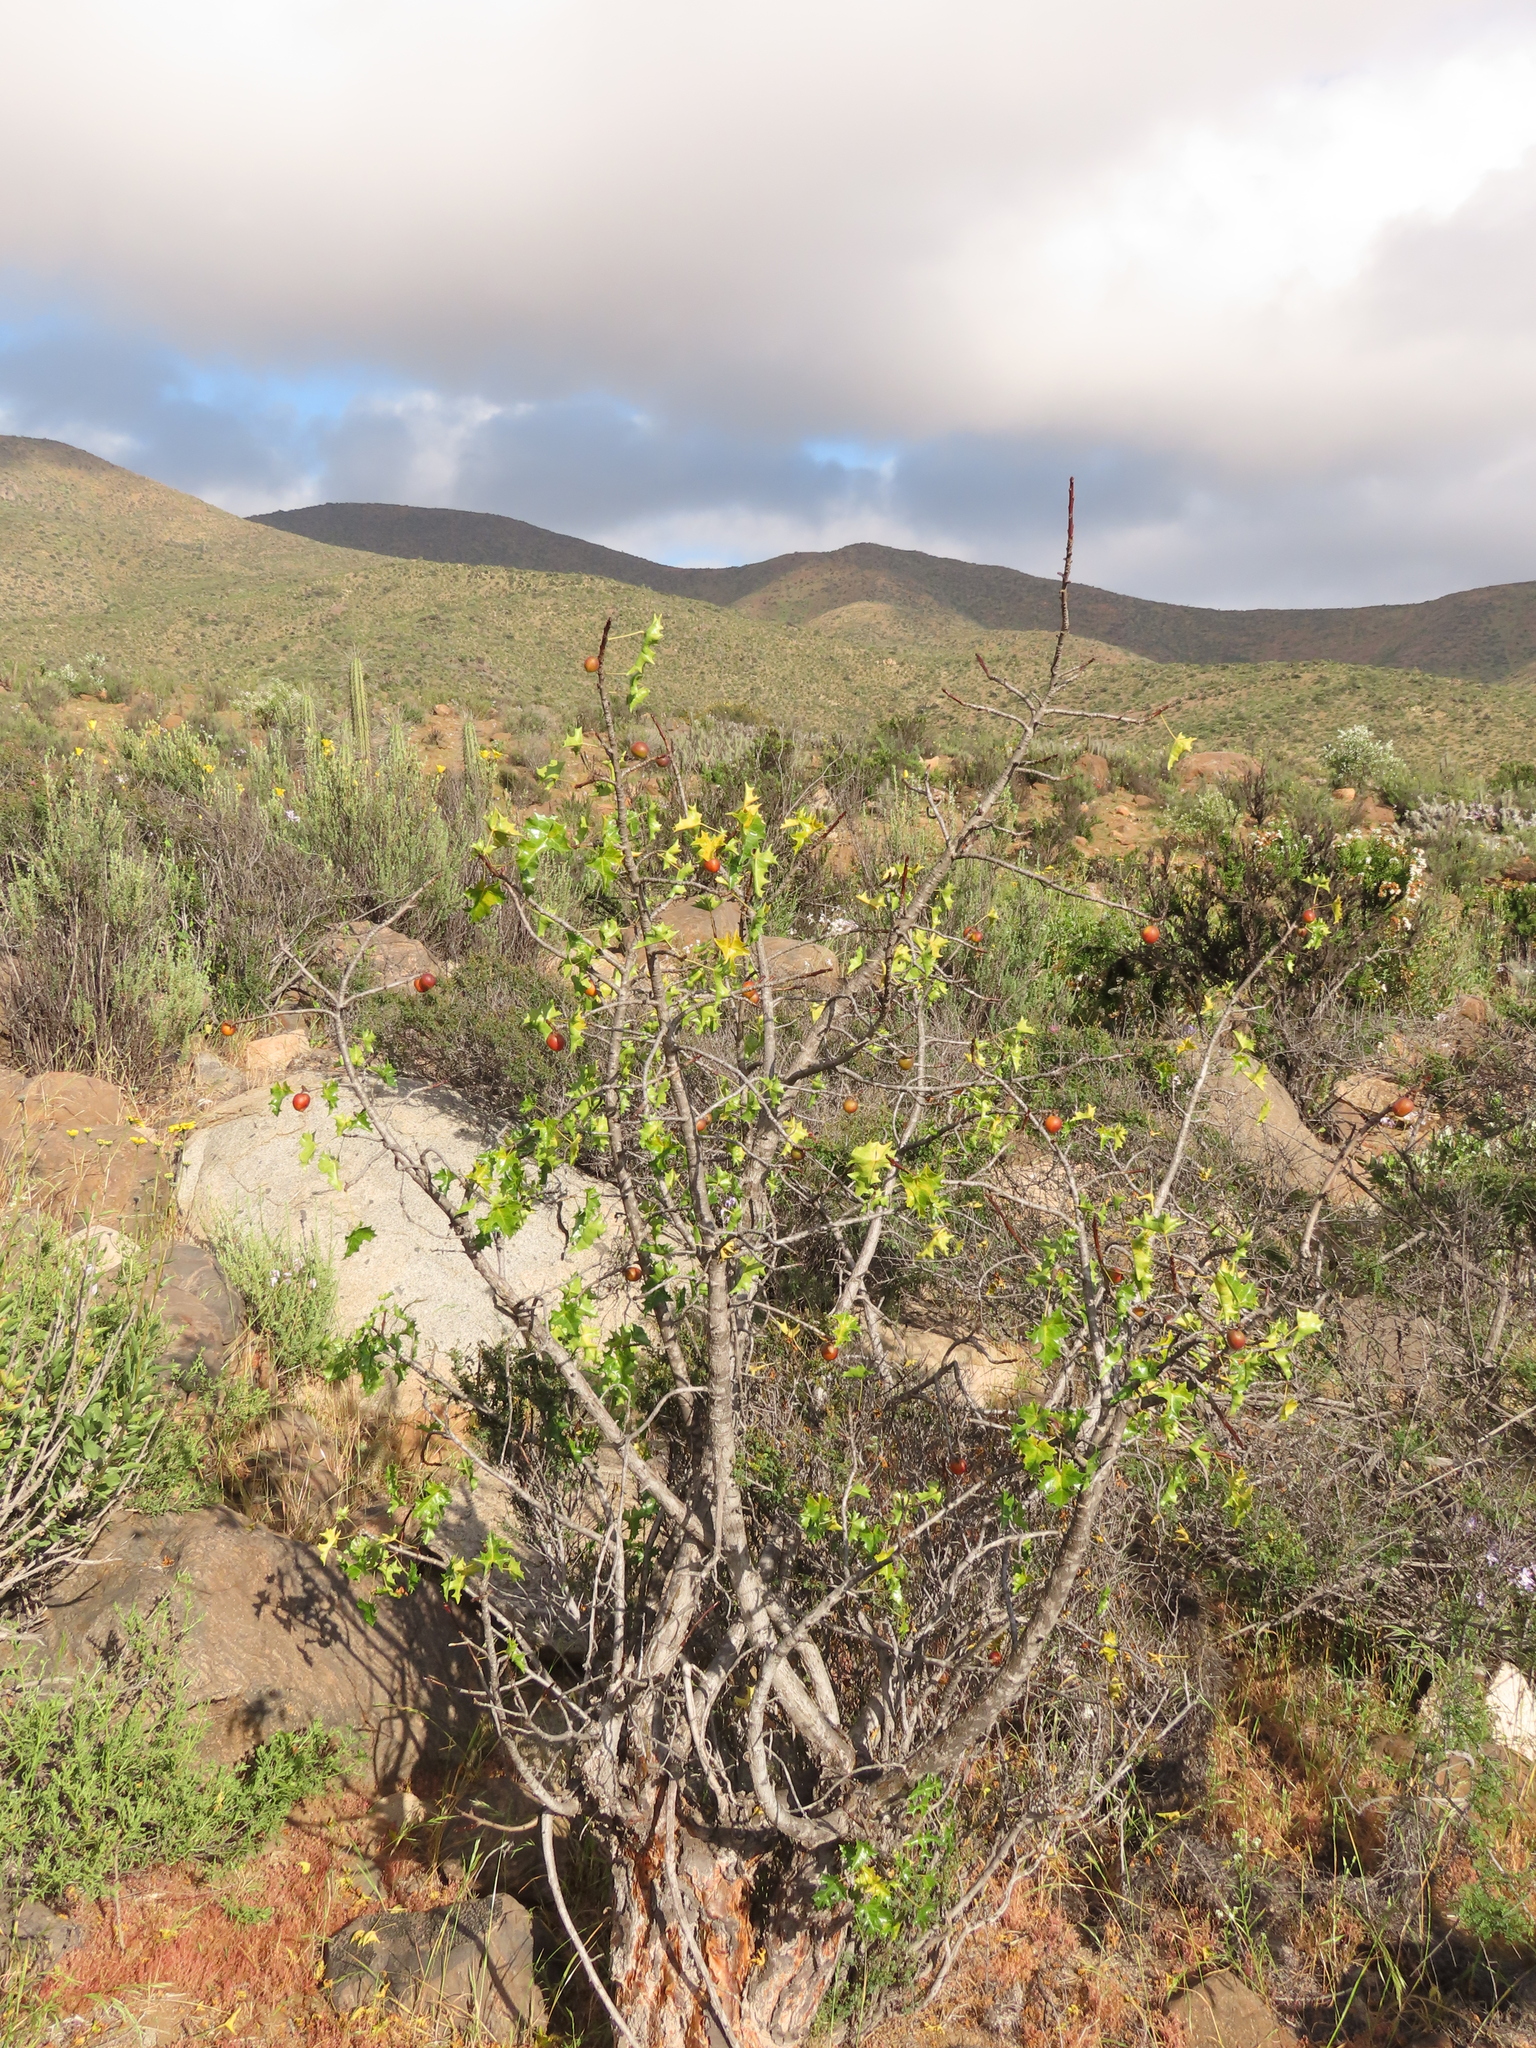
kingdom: Plantae
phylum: Tracheophyta
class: Magnoliopsida
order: Brassicales
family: Caricaceae
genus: Vasconcellea
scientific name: Vasconcellea chilensis
